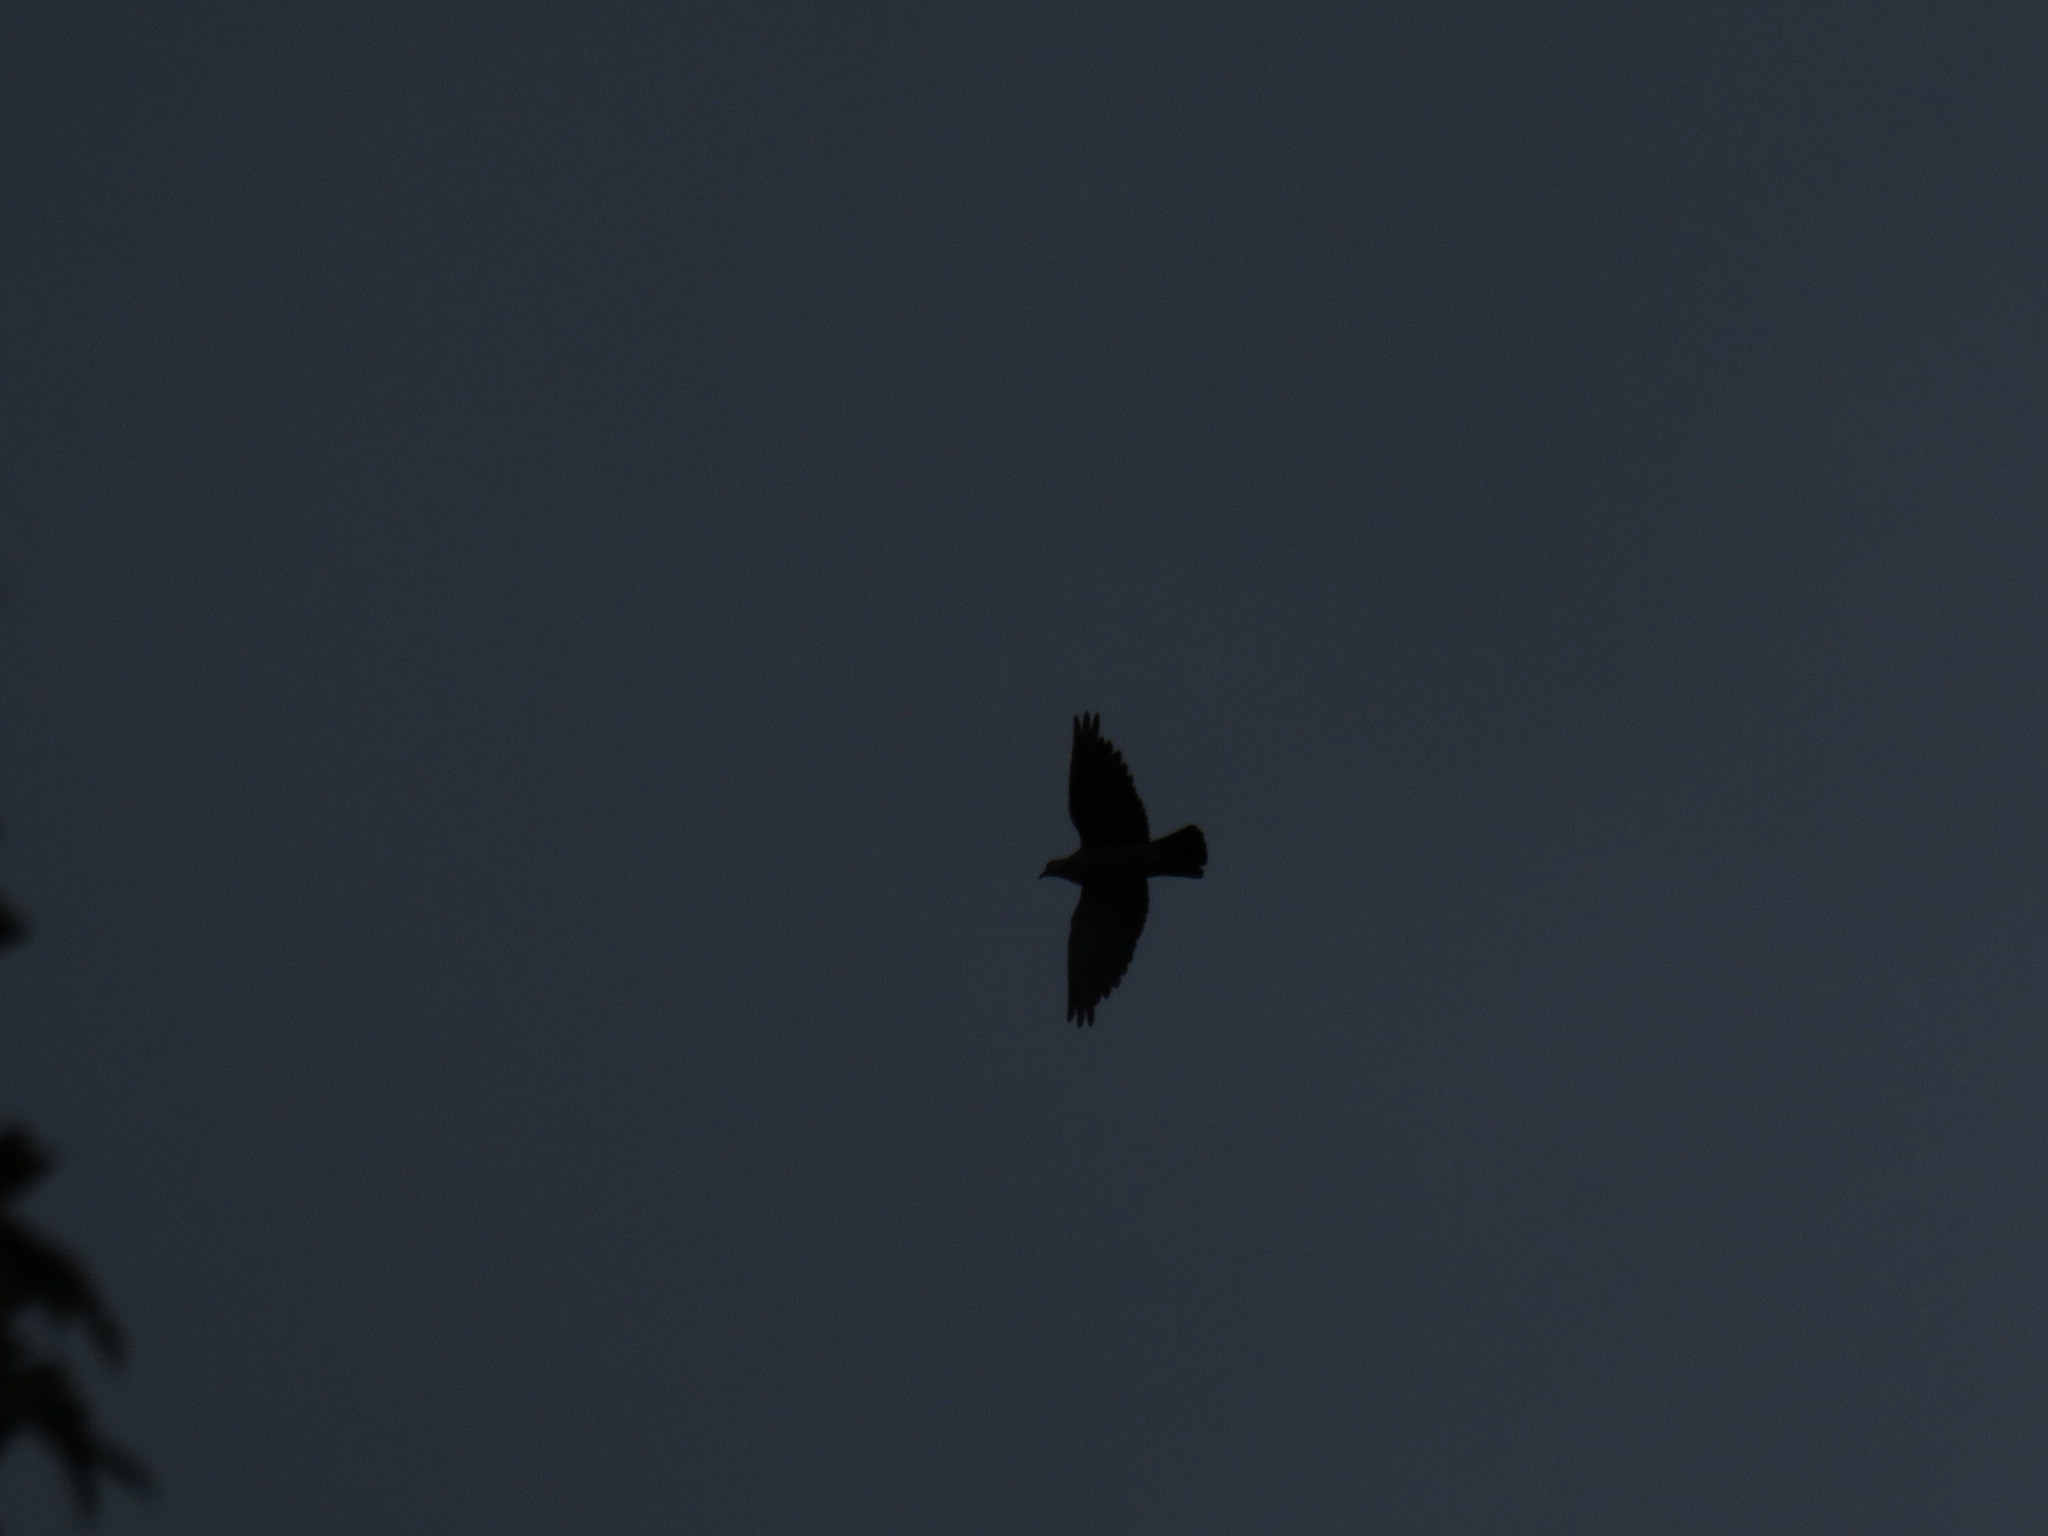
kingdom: Animalia
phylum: Chordata
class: Aves
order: Columbiformes
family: Columbidae
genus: Columba
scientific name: Columba guinea
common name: Speckled pigeon
